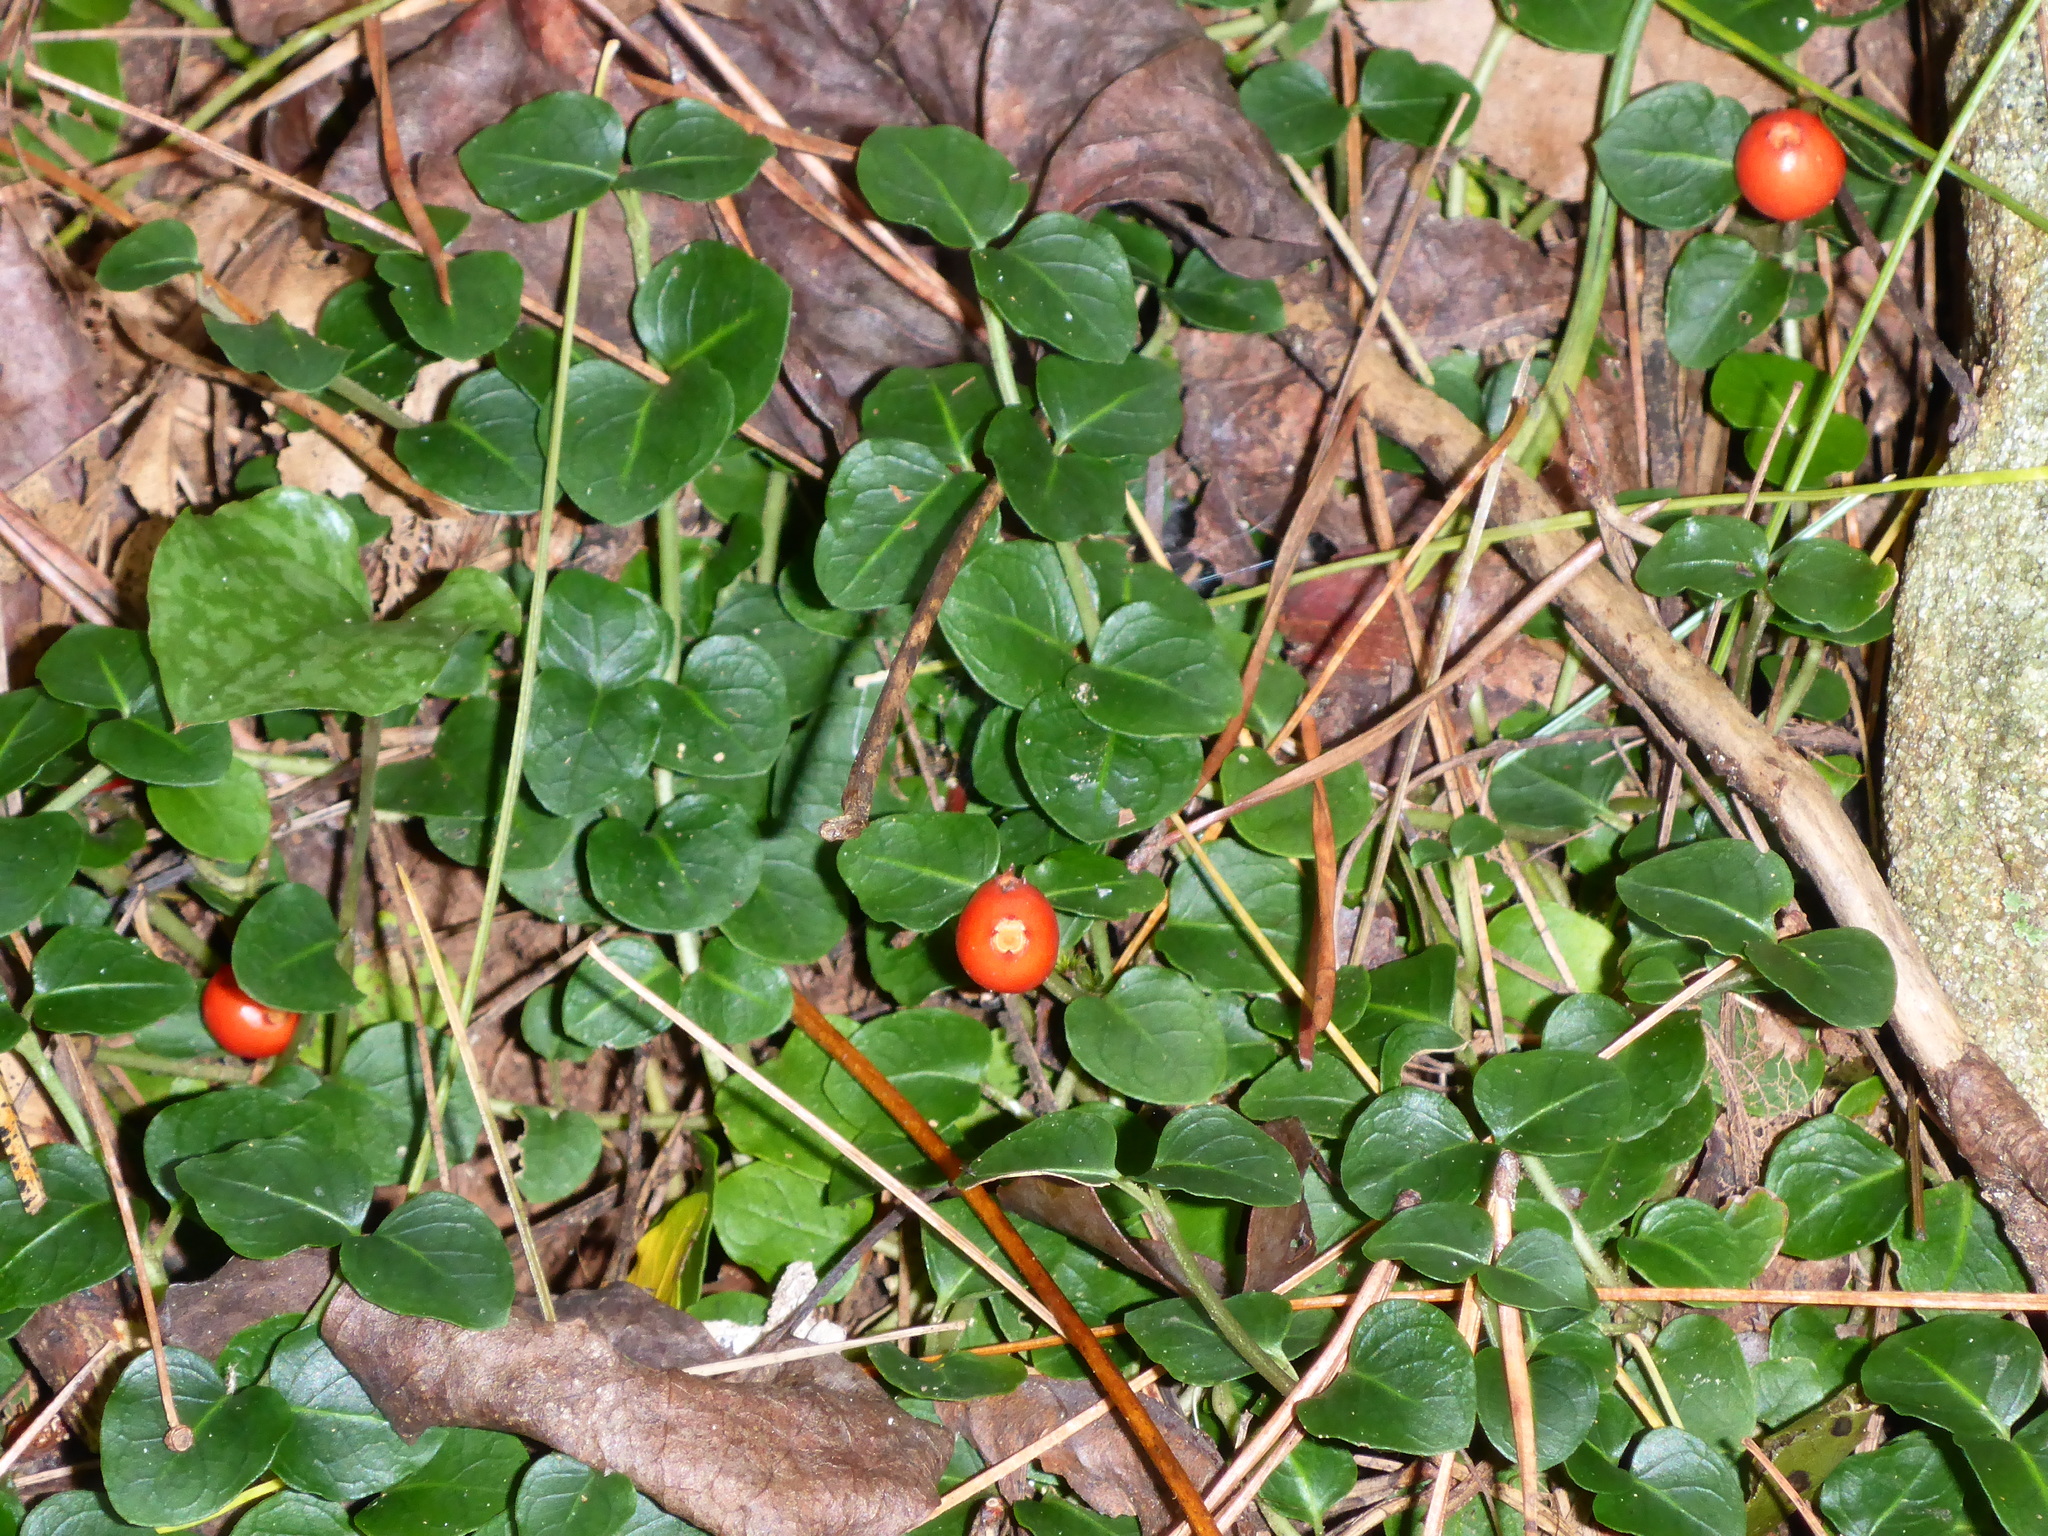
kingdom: Plantae
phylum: Tracheophyta
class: Magnoliopsida
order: Gentianales
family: Rubiaceae
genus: Mitchella
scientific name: Mitchella repens
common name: Partridge-berry
